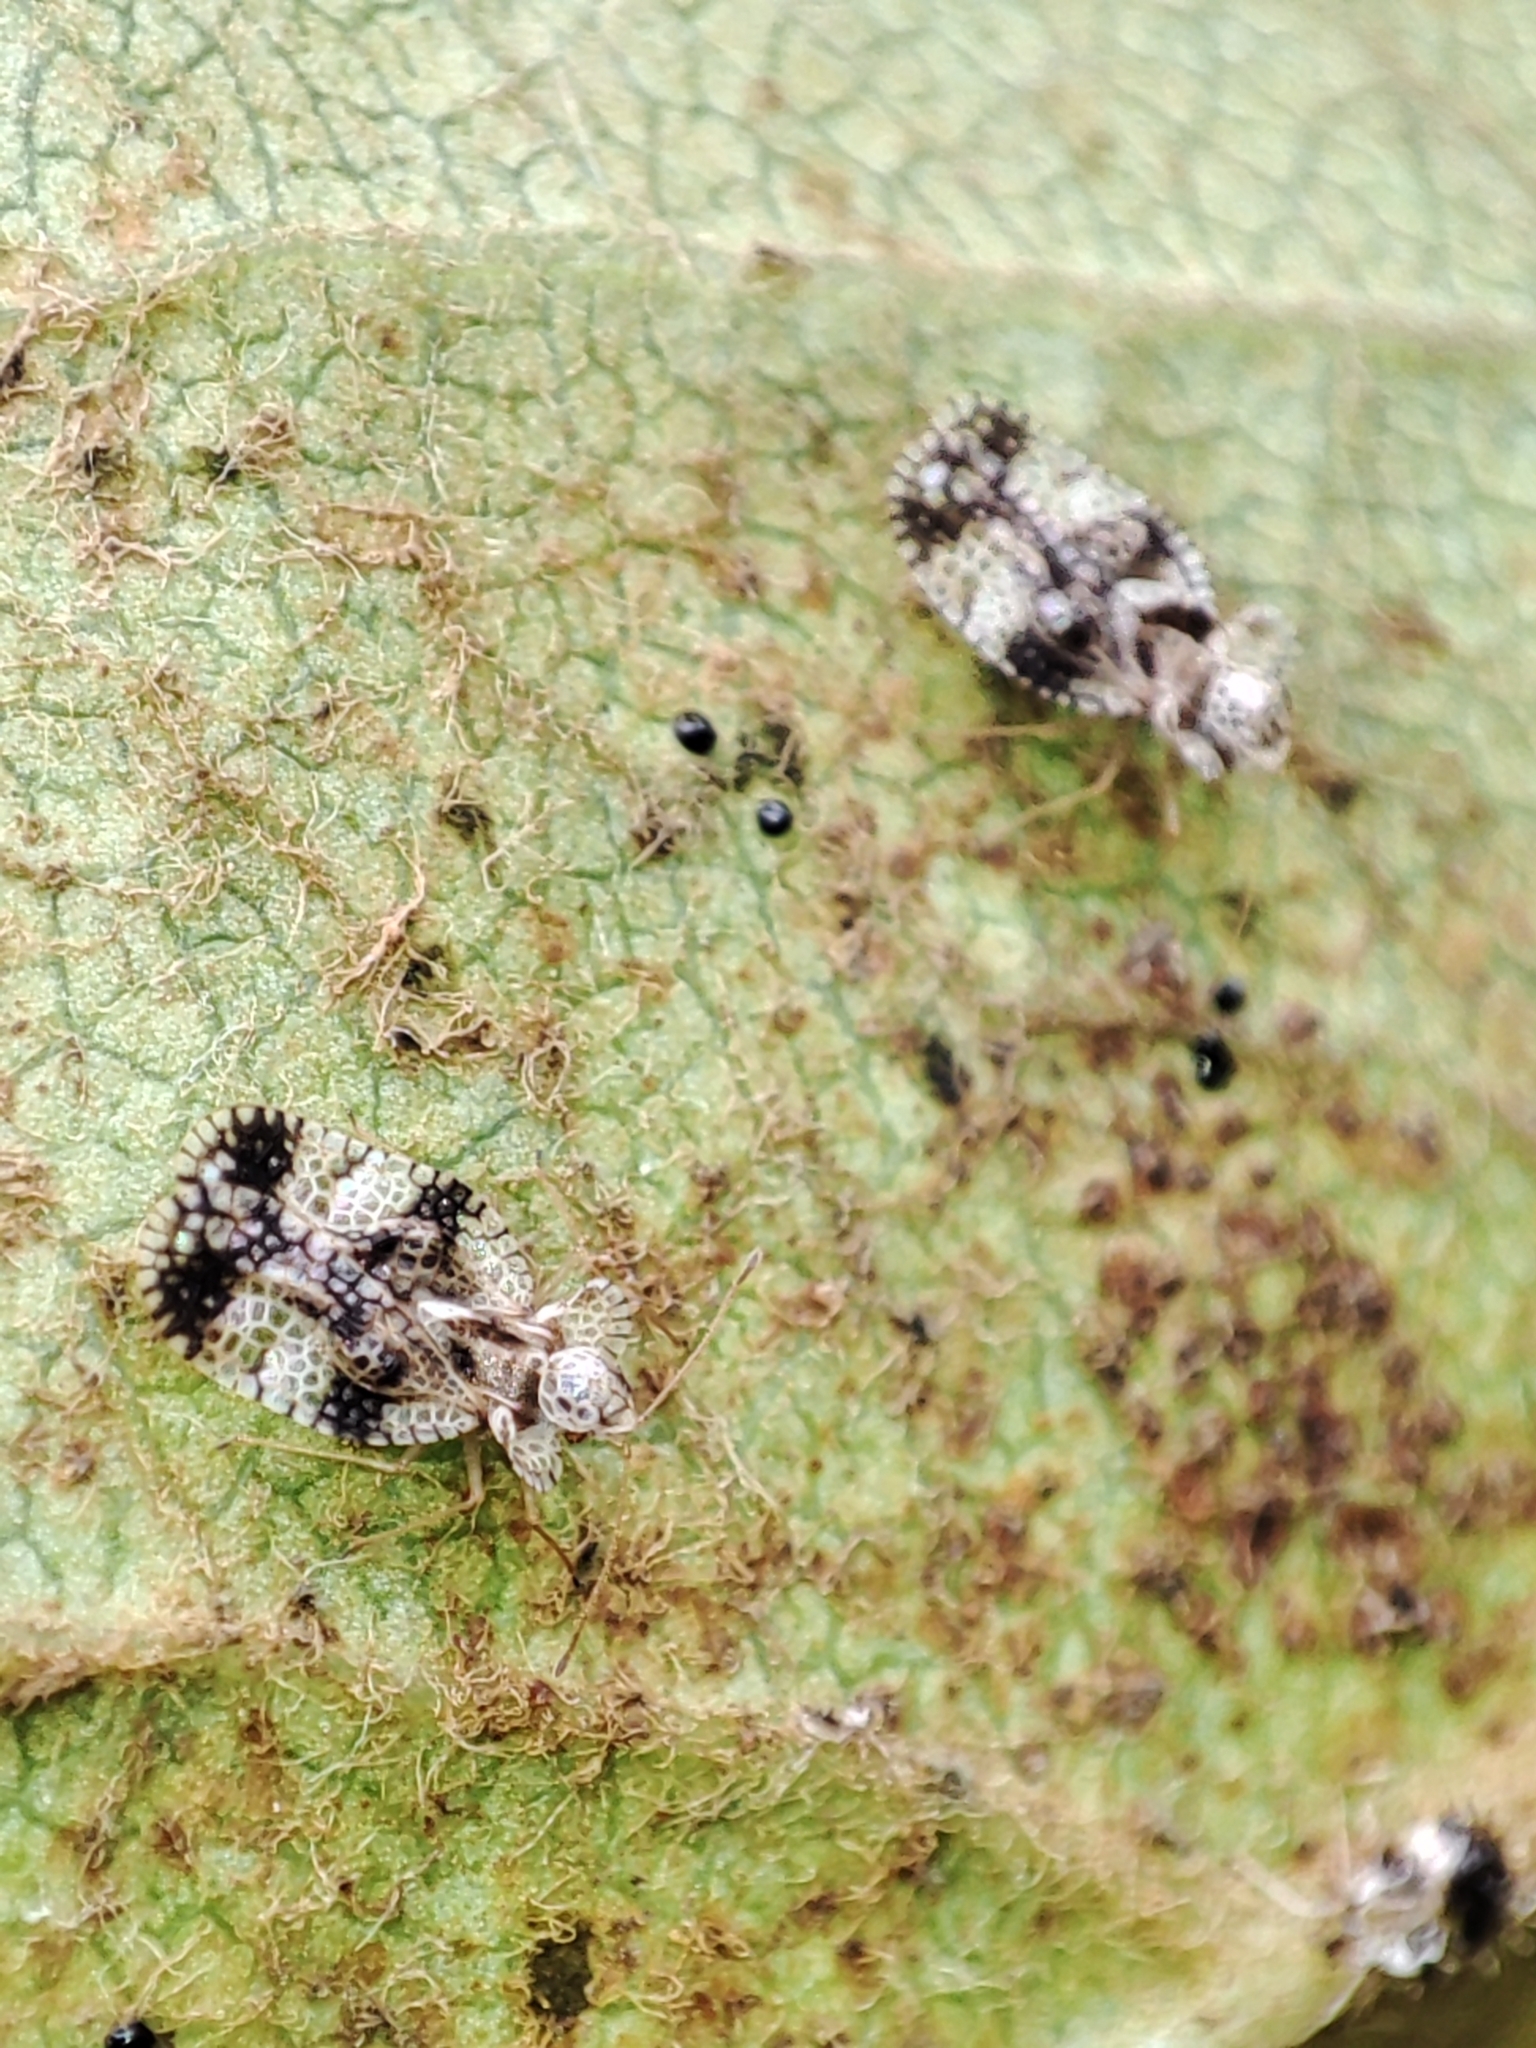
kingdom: Animalia
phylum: Arthropoda
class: Insecta
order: Hemiptera
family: Tingidae
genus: Stephanitis
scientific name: Stephanitis pyri
